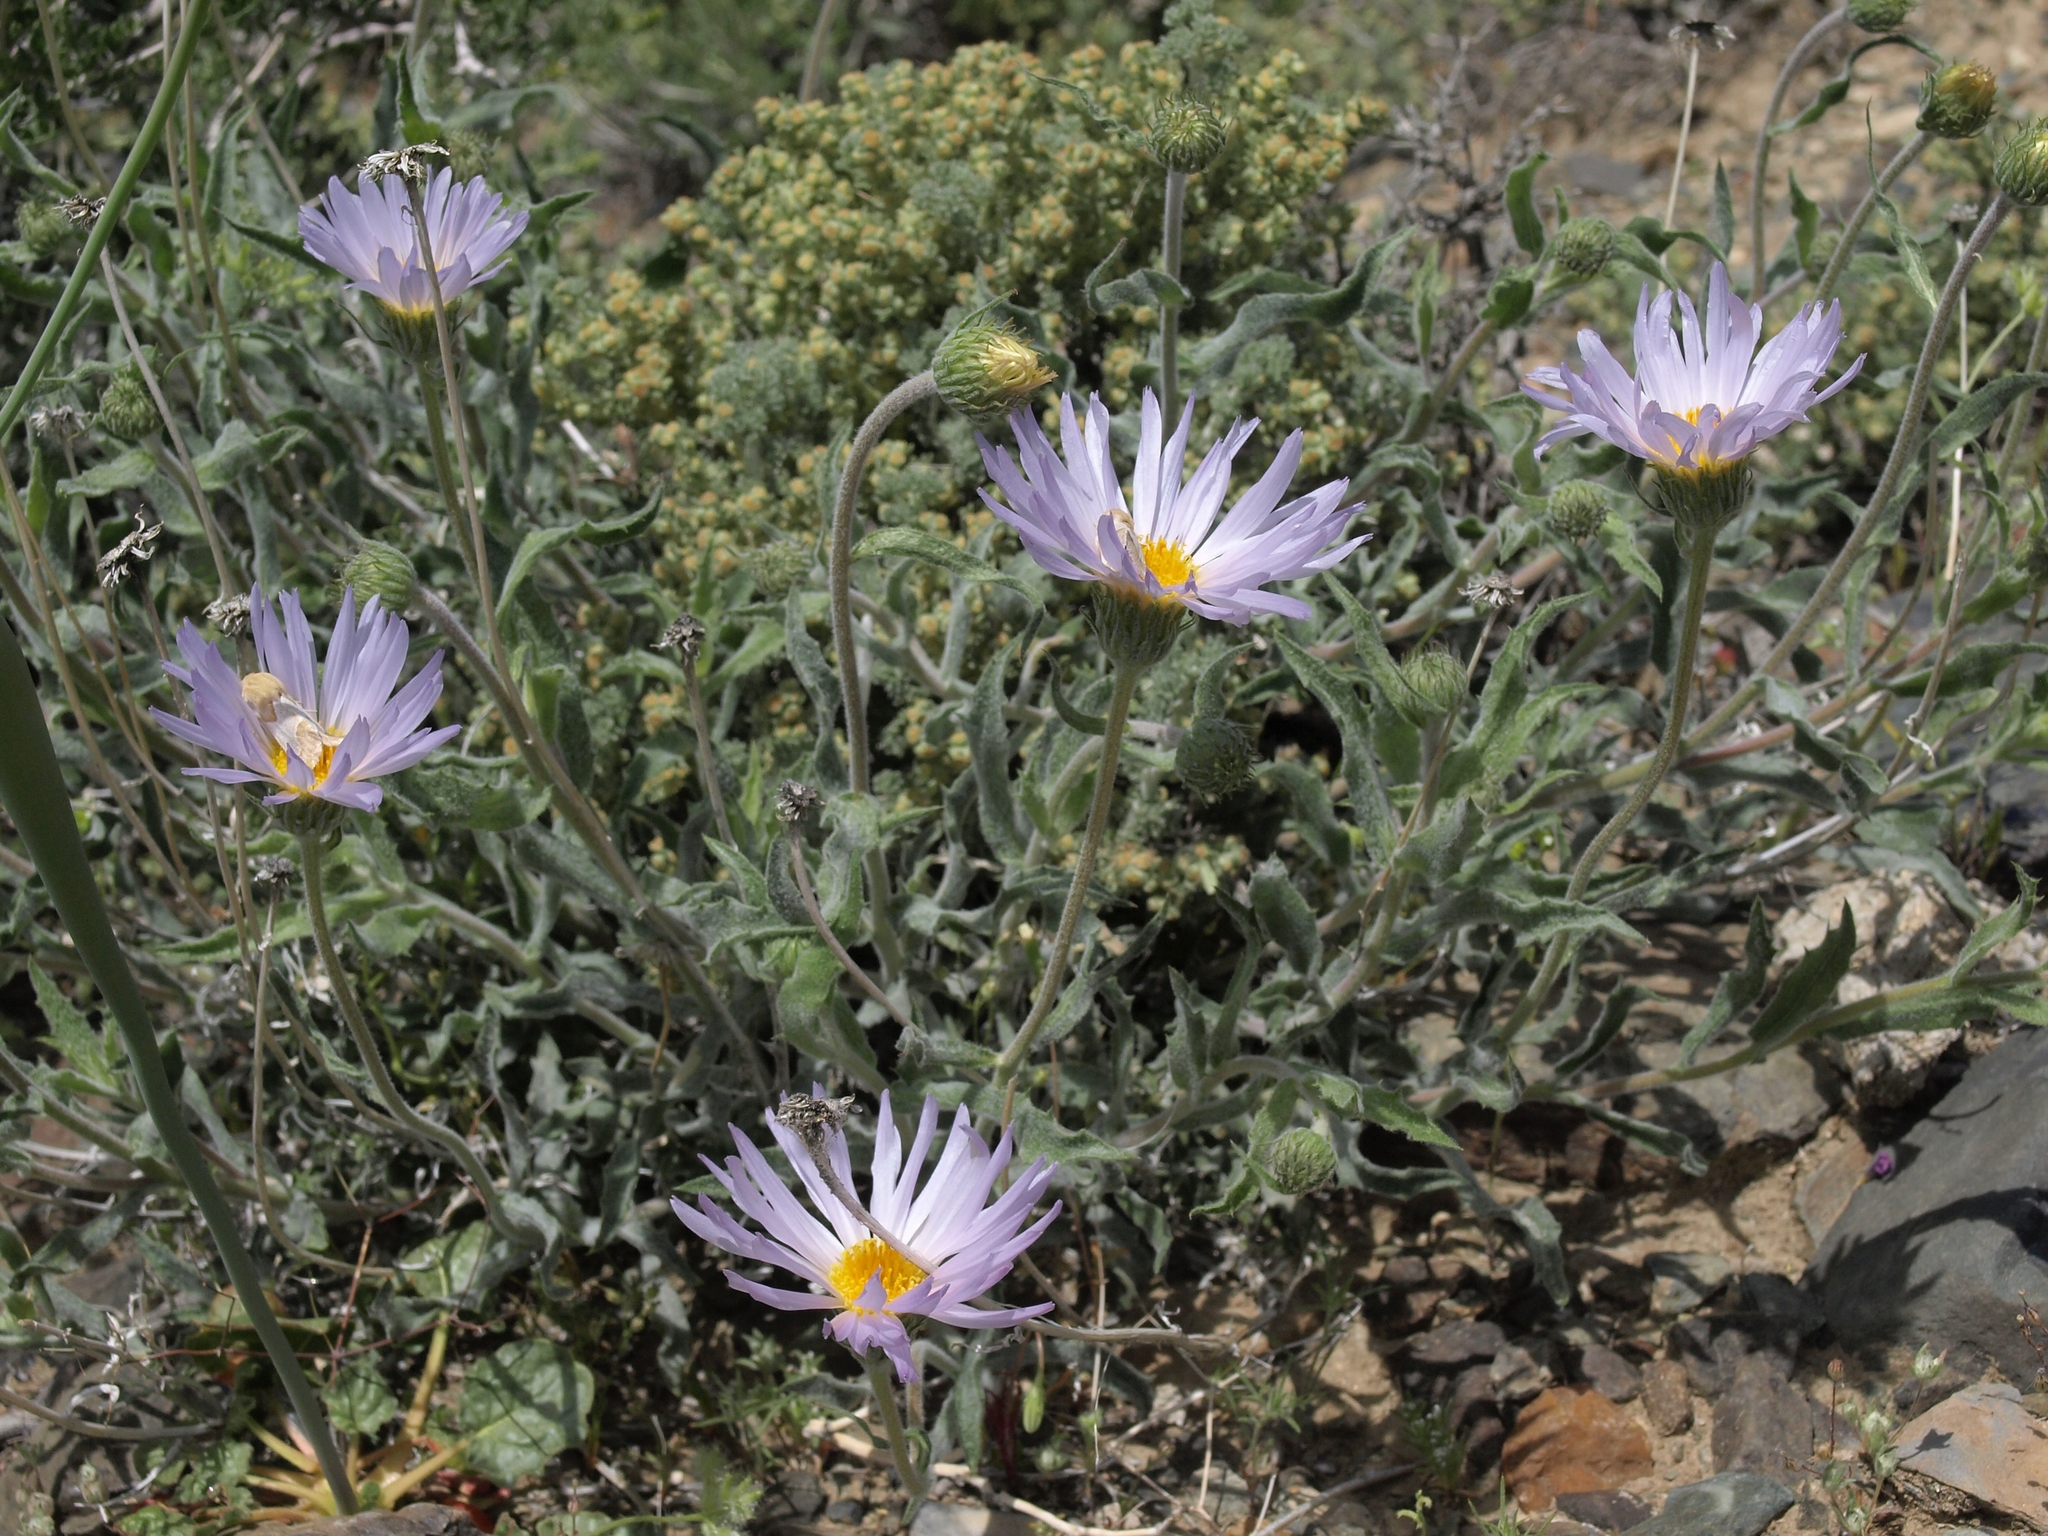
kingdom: Plantae
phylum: Tracheophyta
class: Magnoliopsida
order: Asterales
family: Asteraceae
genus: Xylorhiza
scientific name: Xylorhiza tortifolia
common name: Hurt-leaf woody-aster
